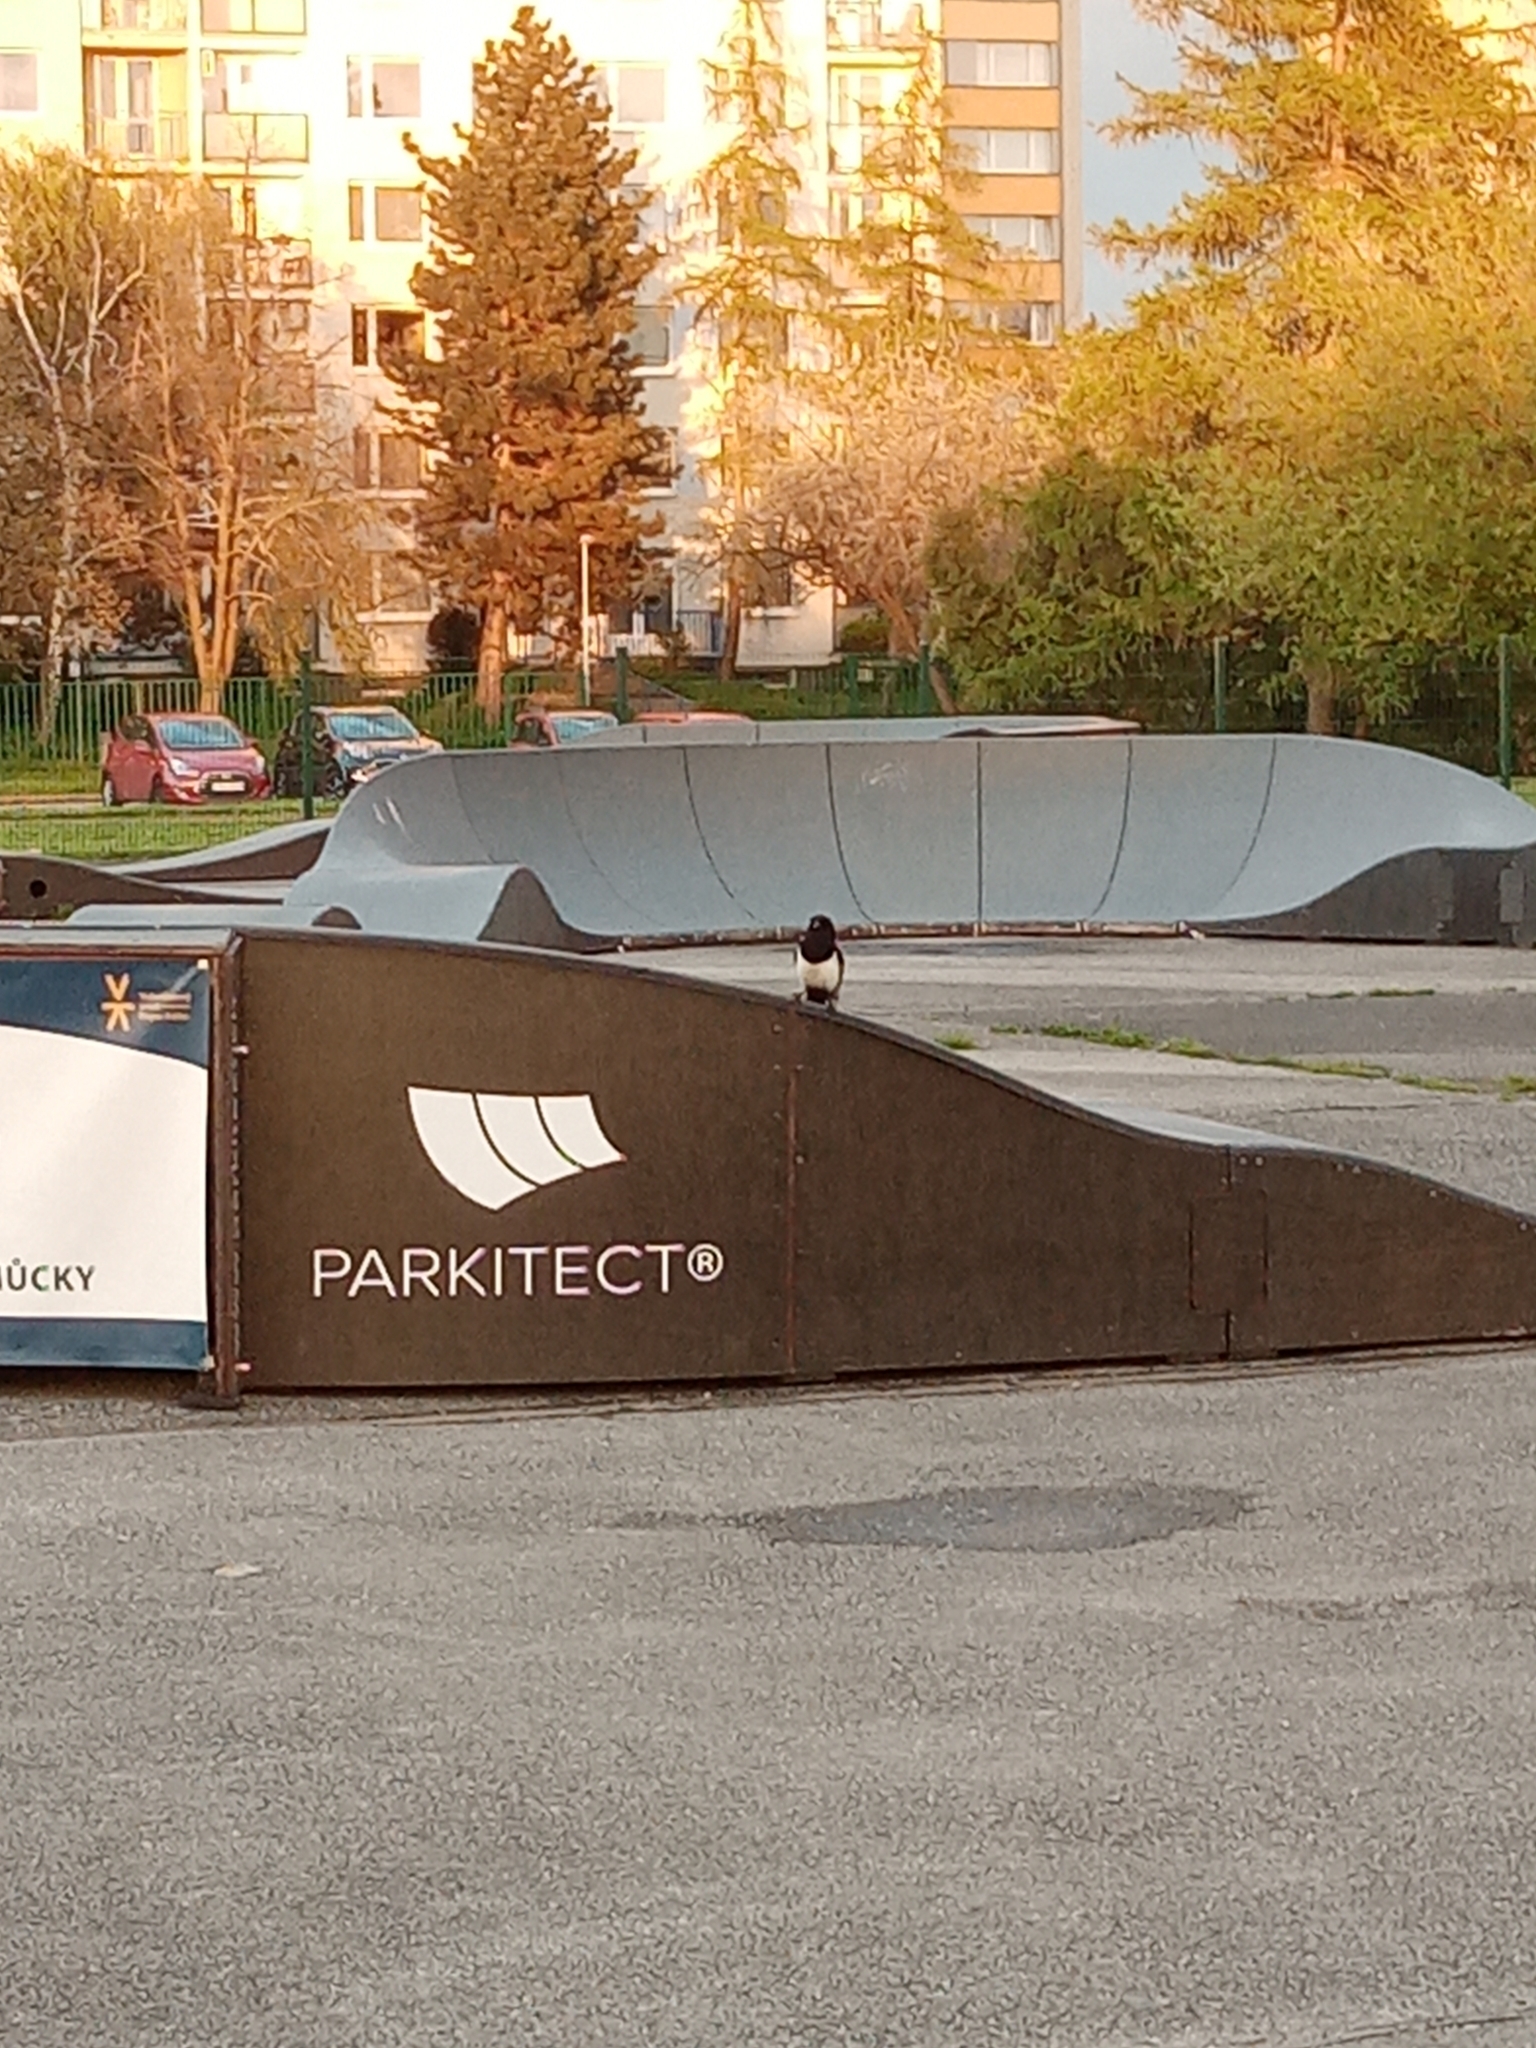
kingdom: Animalia
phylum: Chordata
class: Aves
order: Passeriformes
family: Corvidae
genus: Pica
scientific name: Pica pica
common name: Eurasian magpie
